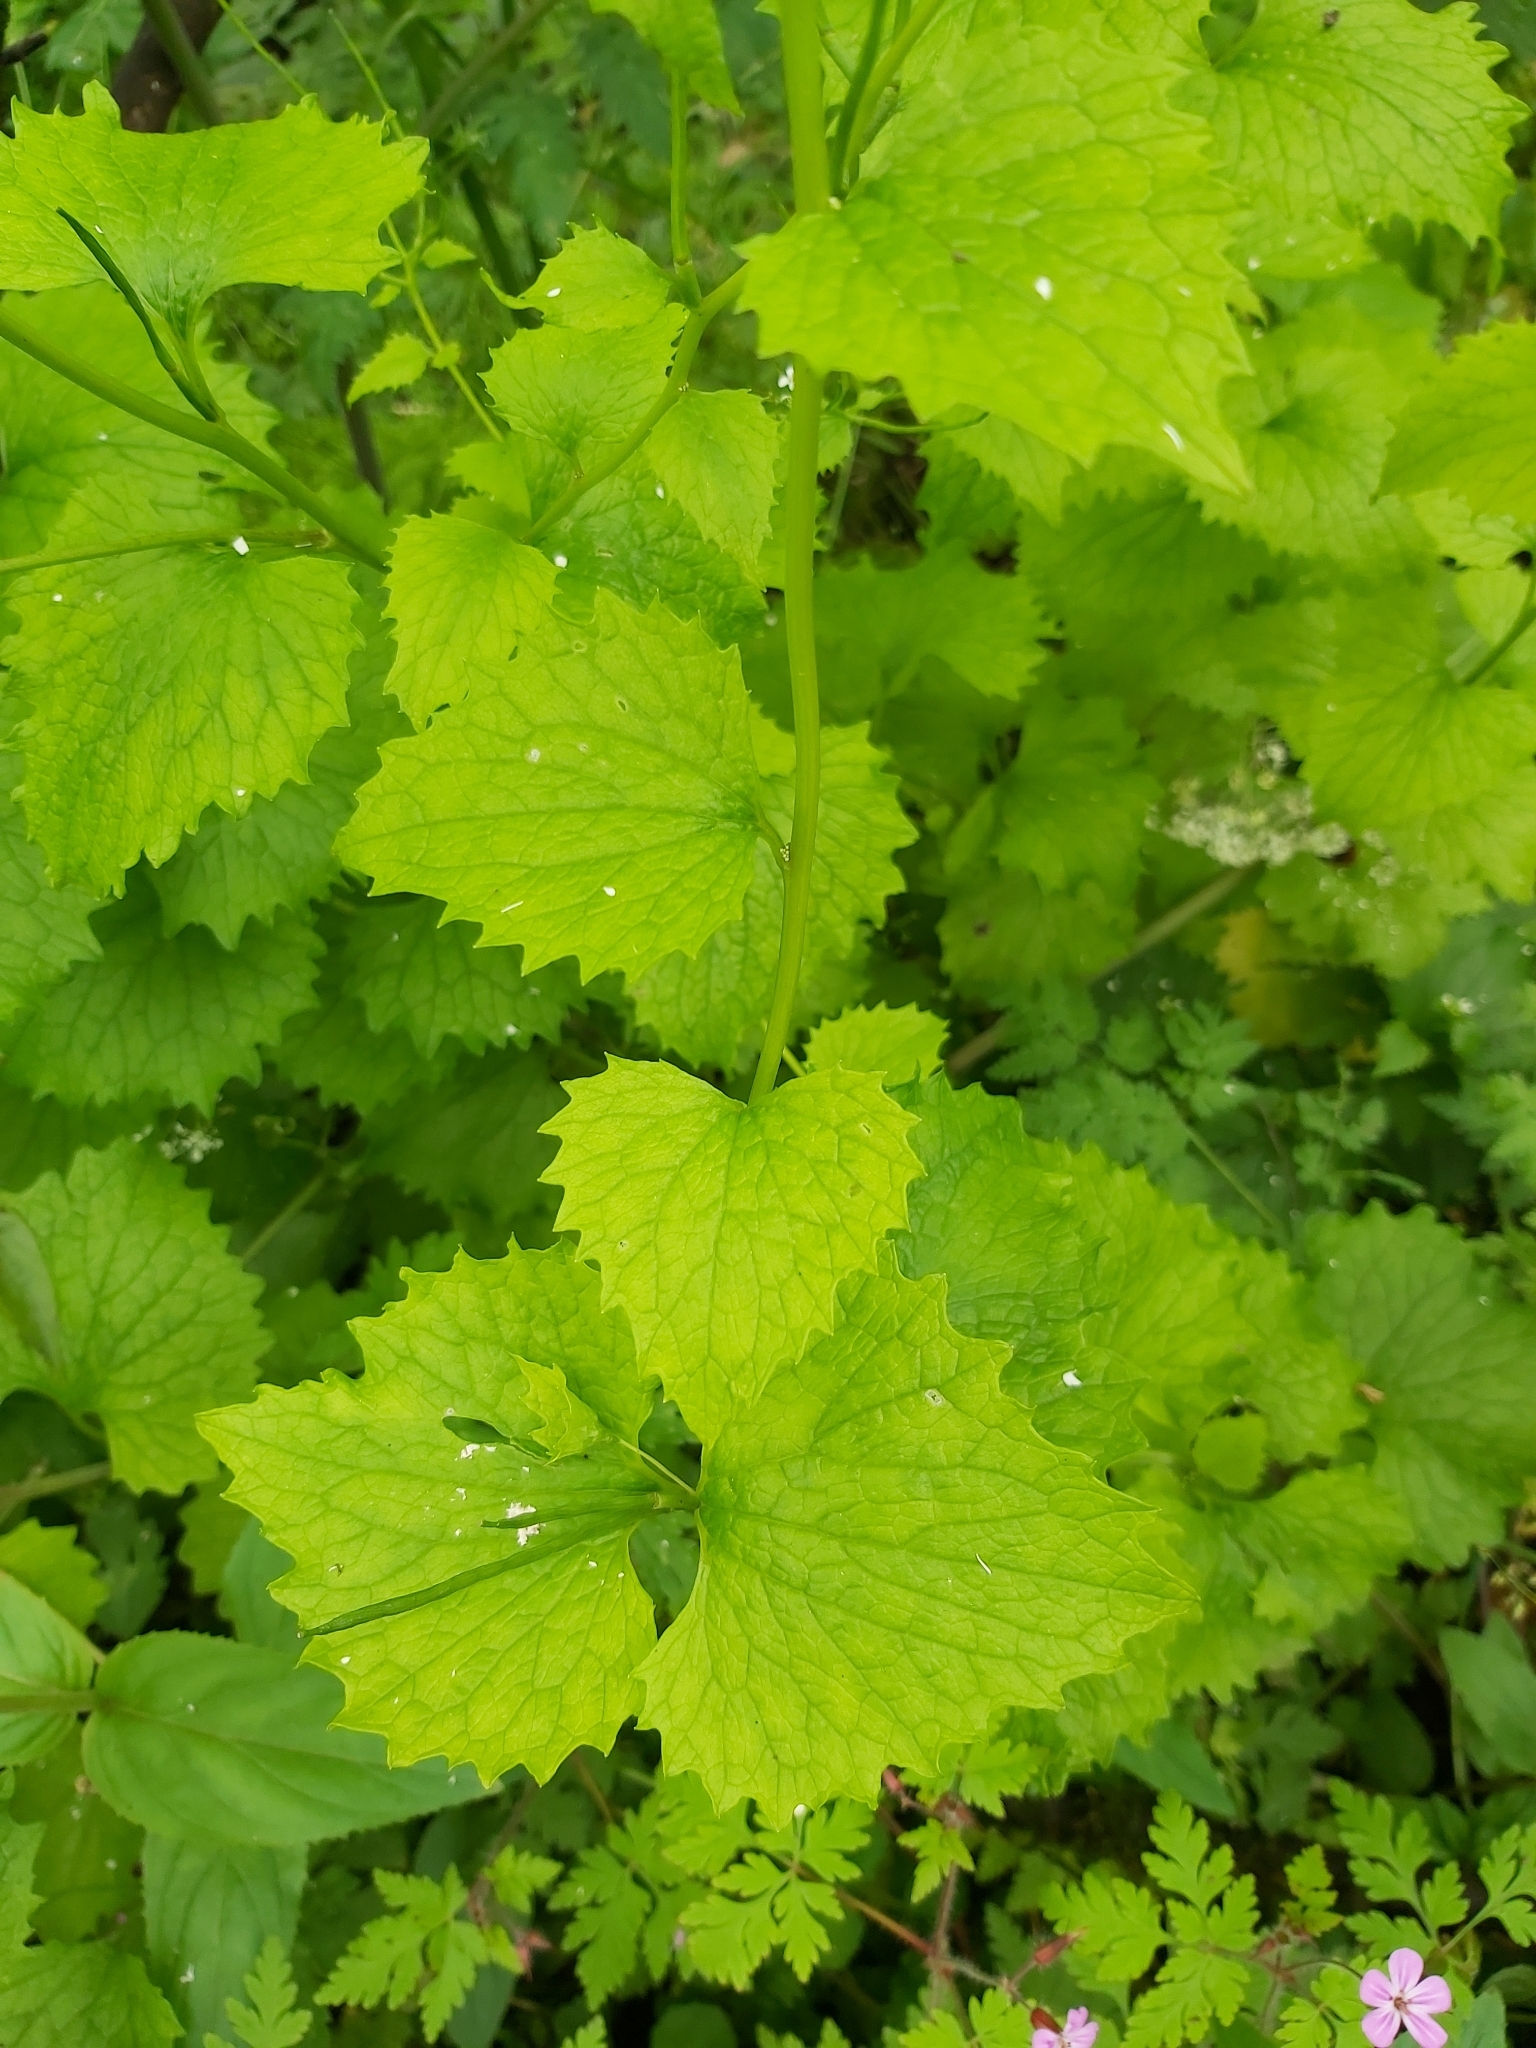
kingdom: Plantae
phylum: Tracheophyta
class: Magnoliopsida
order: Brassicales
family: Brassicaceae
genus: Alliaria
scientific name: Alliaria petiolata
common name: Garlic mustard
